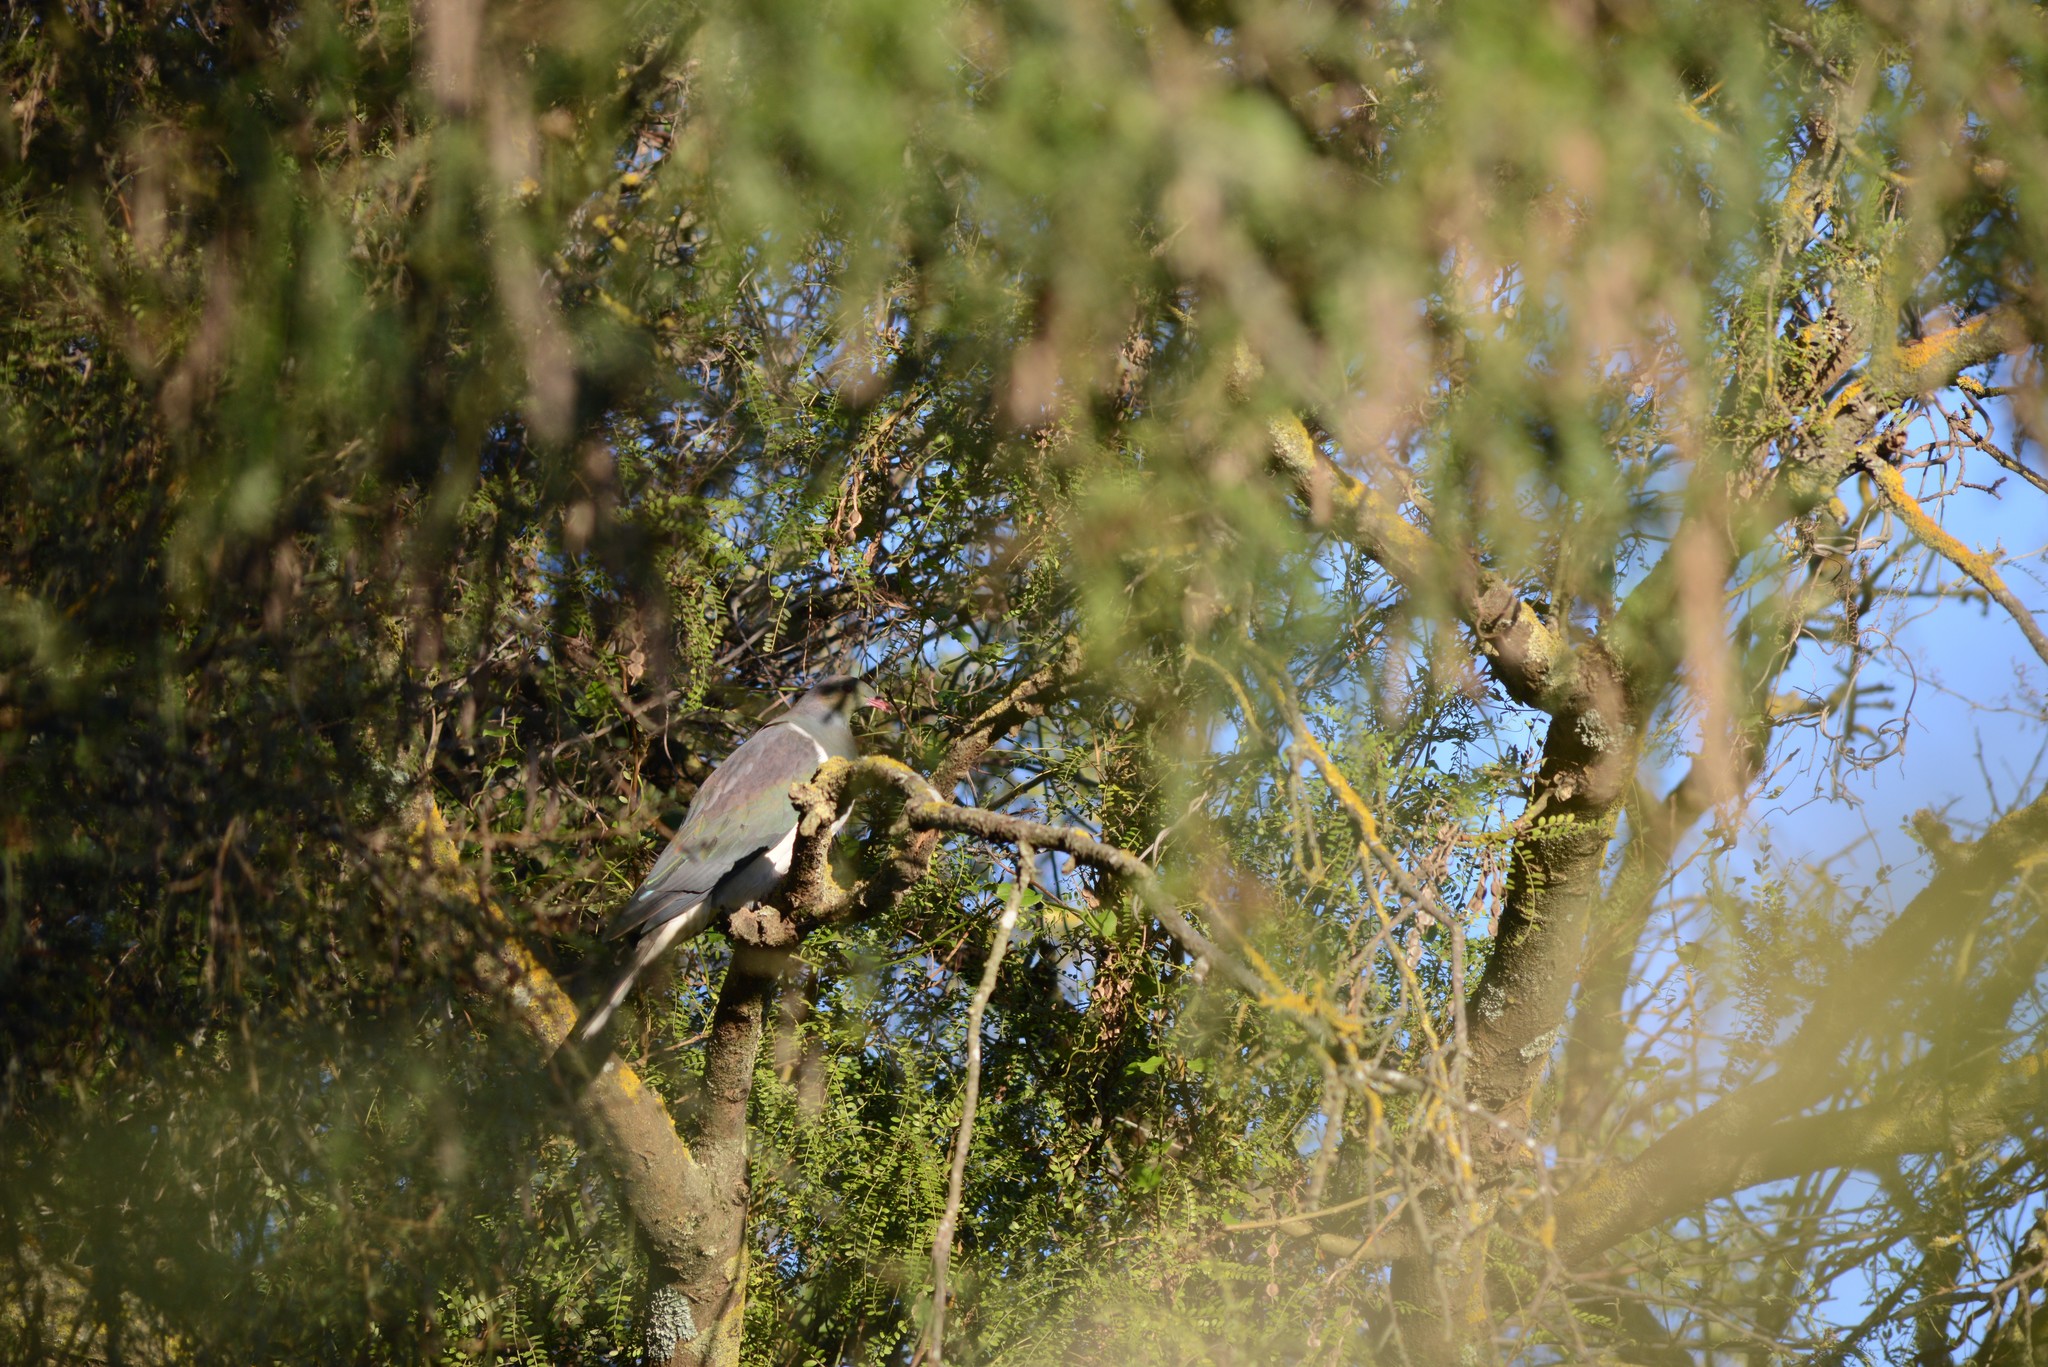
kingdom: Animalia
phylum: Chordata
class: Aves
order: Columbiformes
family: Columbidae
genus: Hemiphaga
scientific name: Hemiphaga novaeseelandiae
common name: New zealand pigeon
